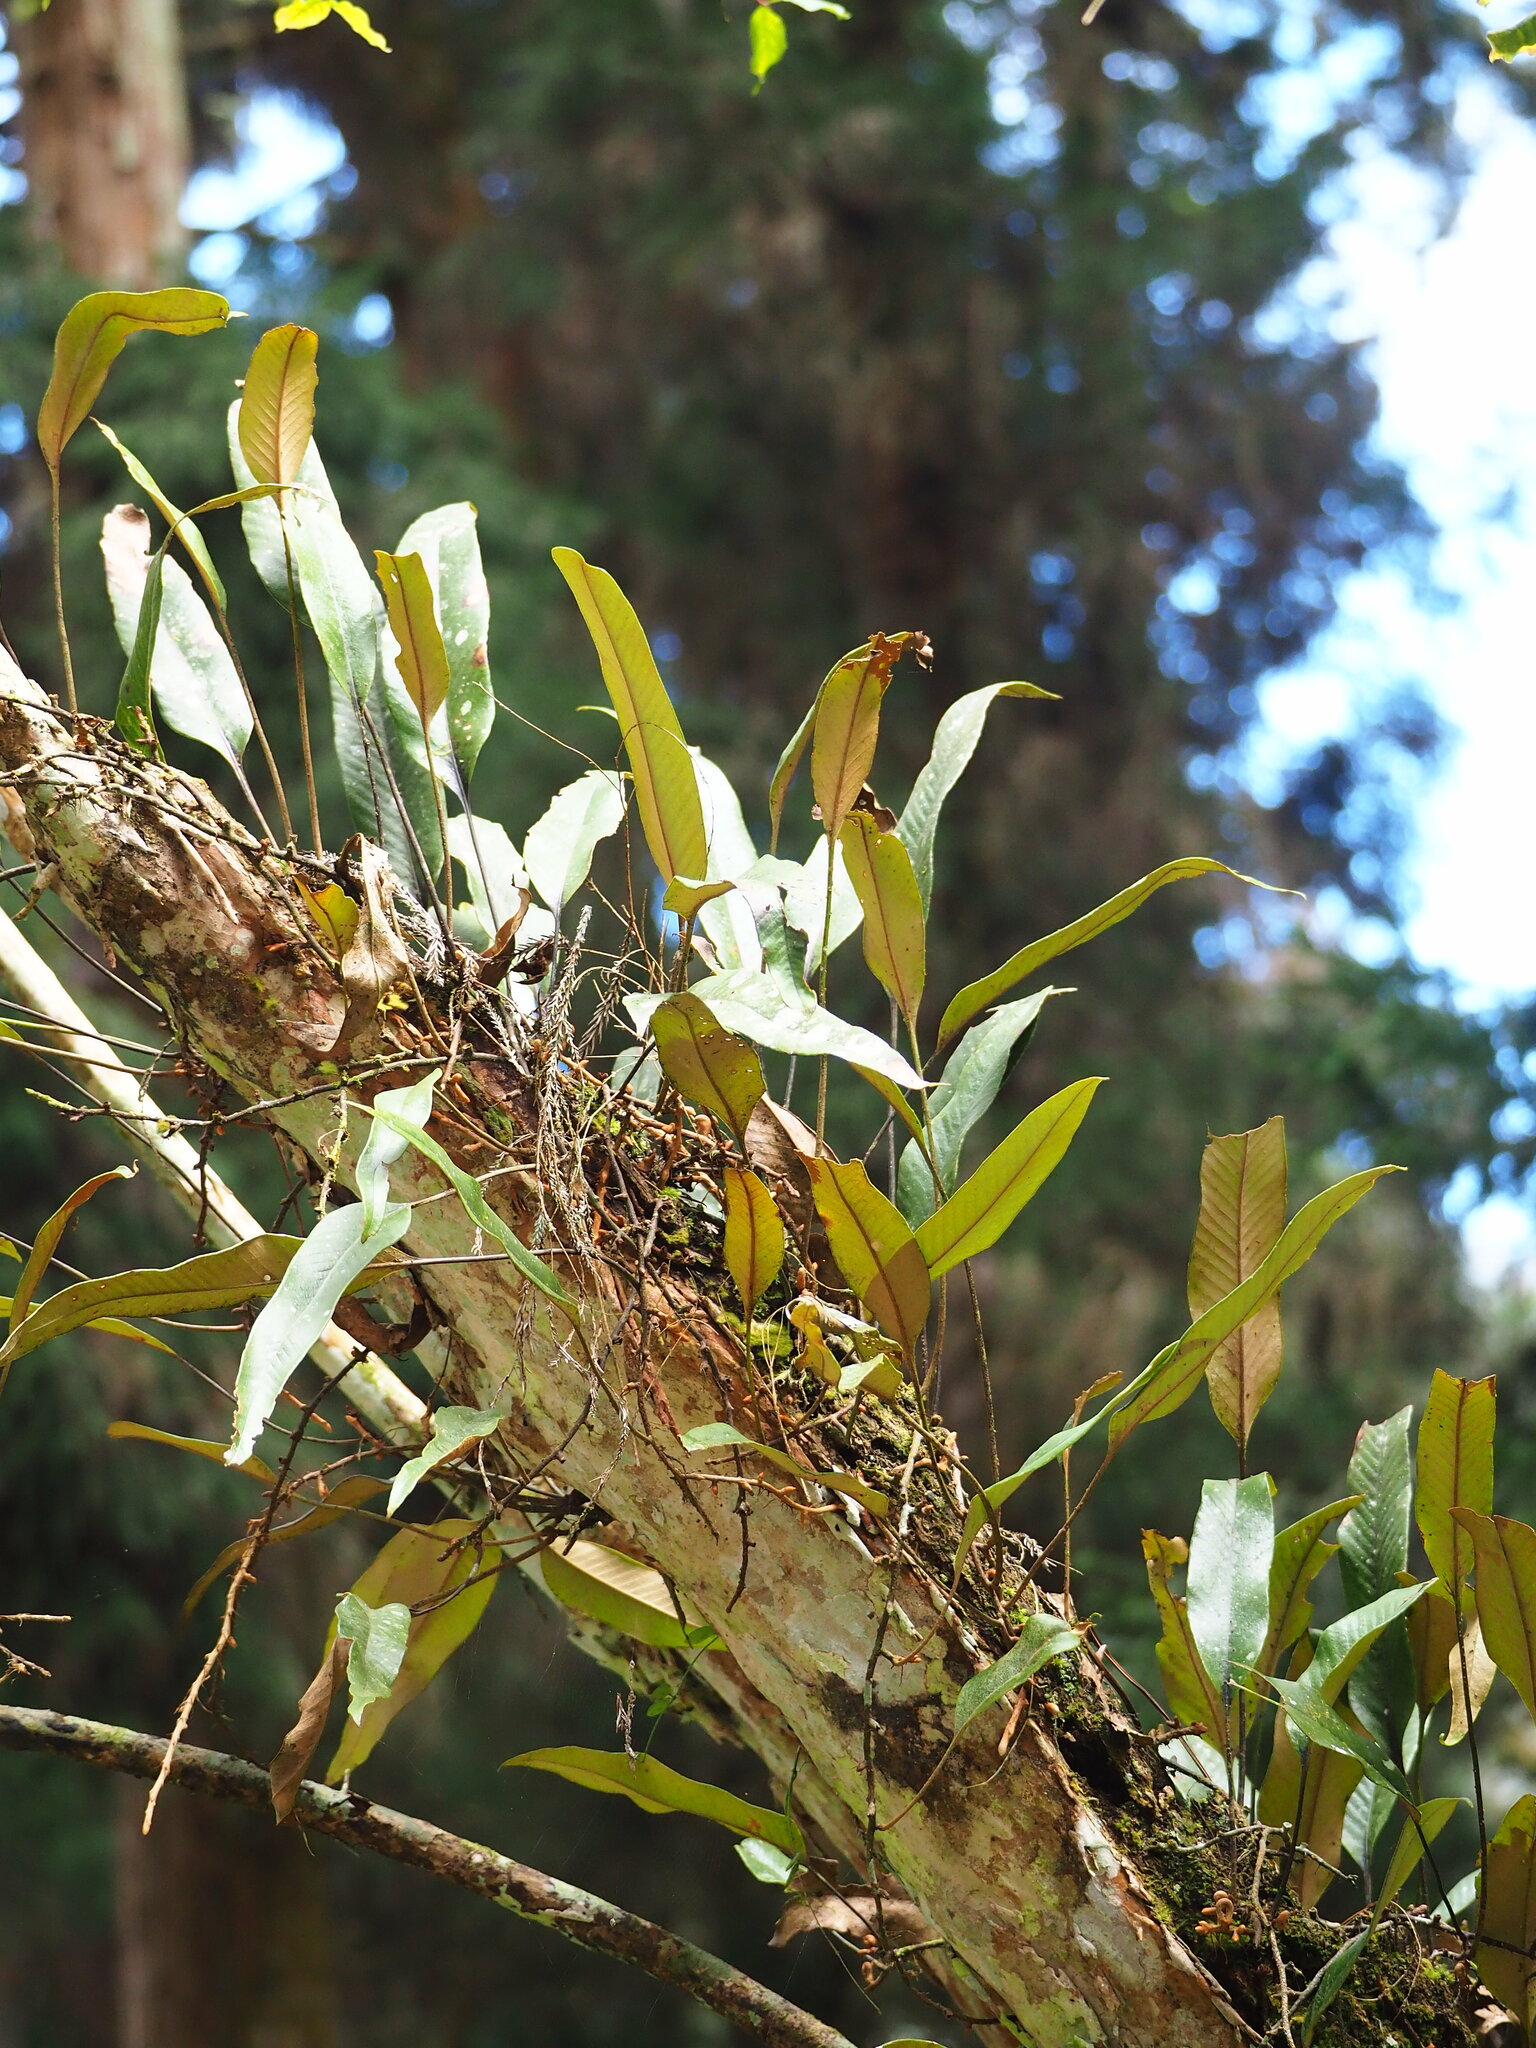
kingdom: Plantae
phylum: Tracheophyta
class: Polypodiopsida
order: Polypodiales
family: Polypodiaceae
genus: Pyrrosia
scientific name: Pyrrosia lingua
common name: Felt fern
